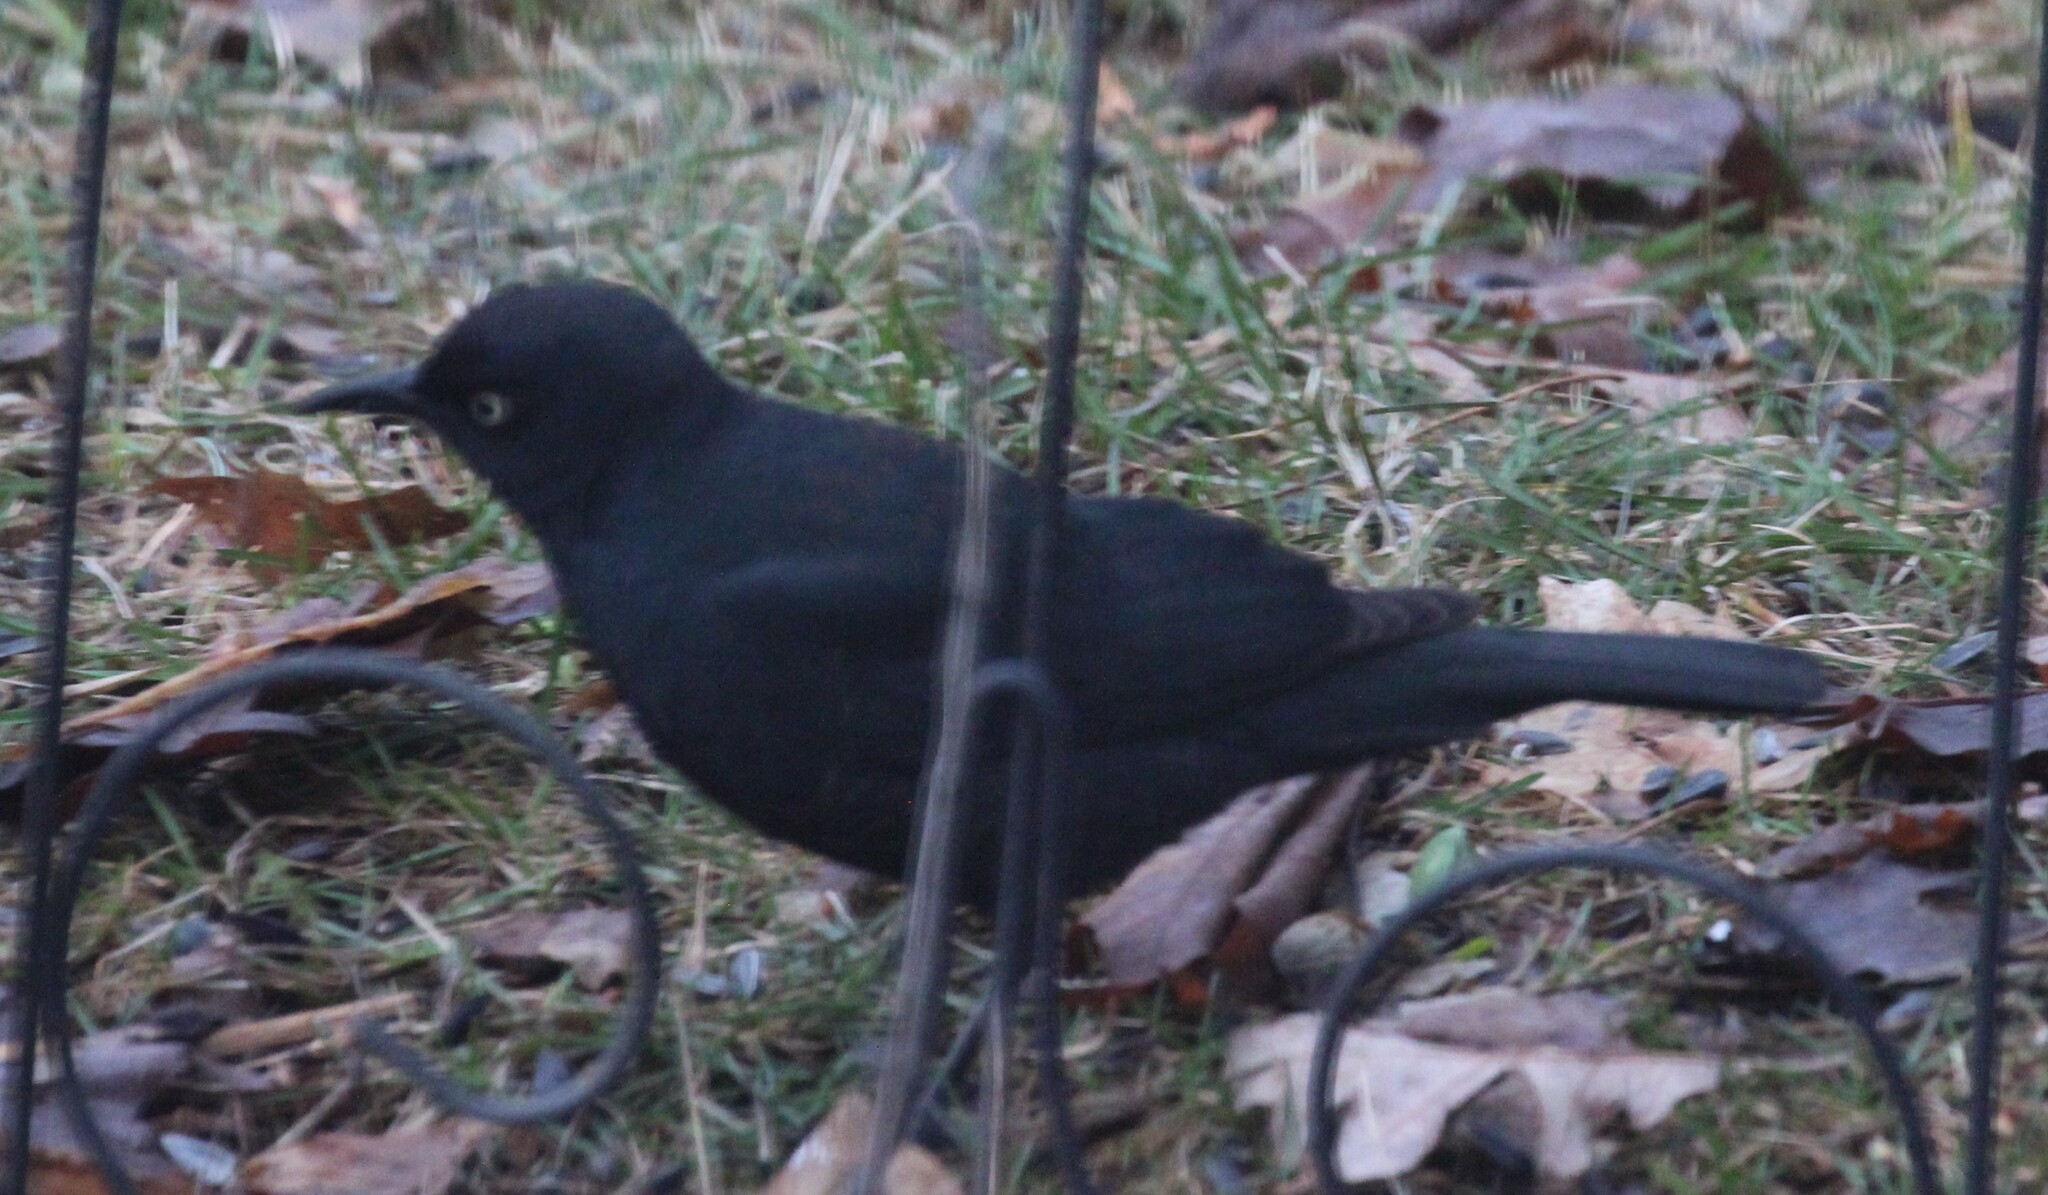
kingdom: Animalia
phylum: Chordata
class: Aves
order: Passeriformes
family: Icteridae
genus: Euphagus
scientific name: Euphagus carolinus
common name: Rusty blackbird
